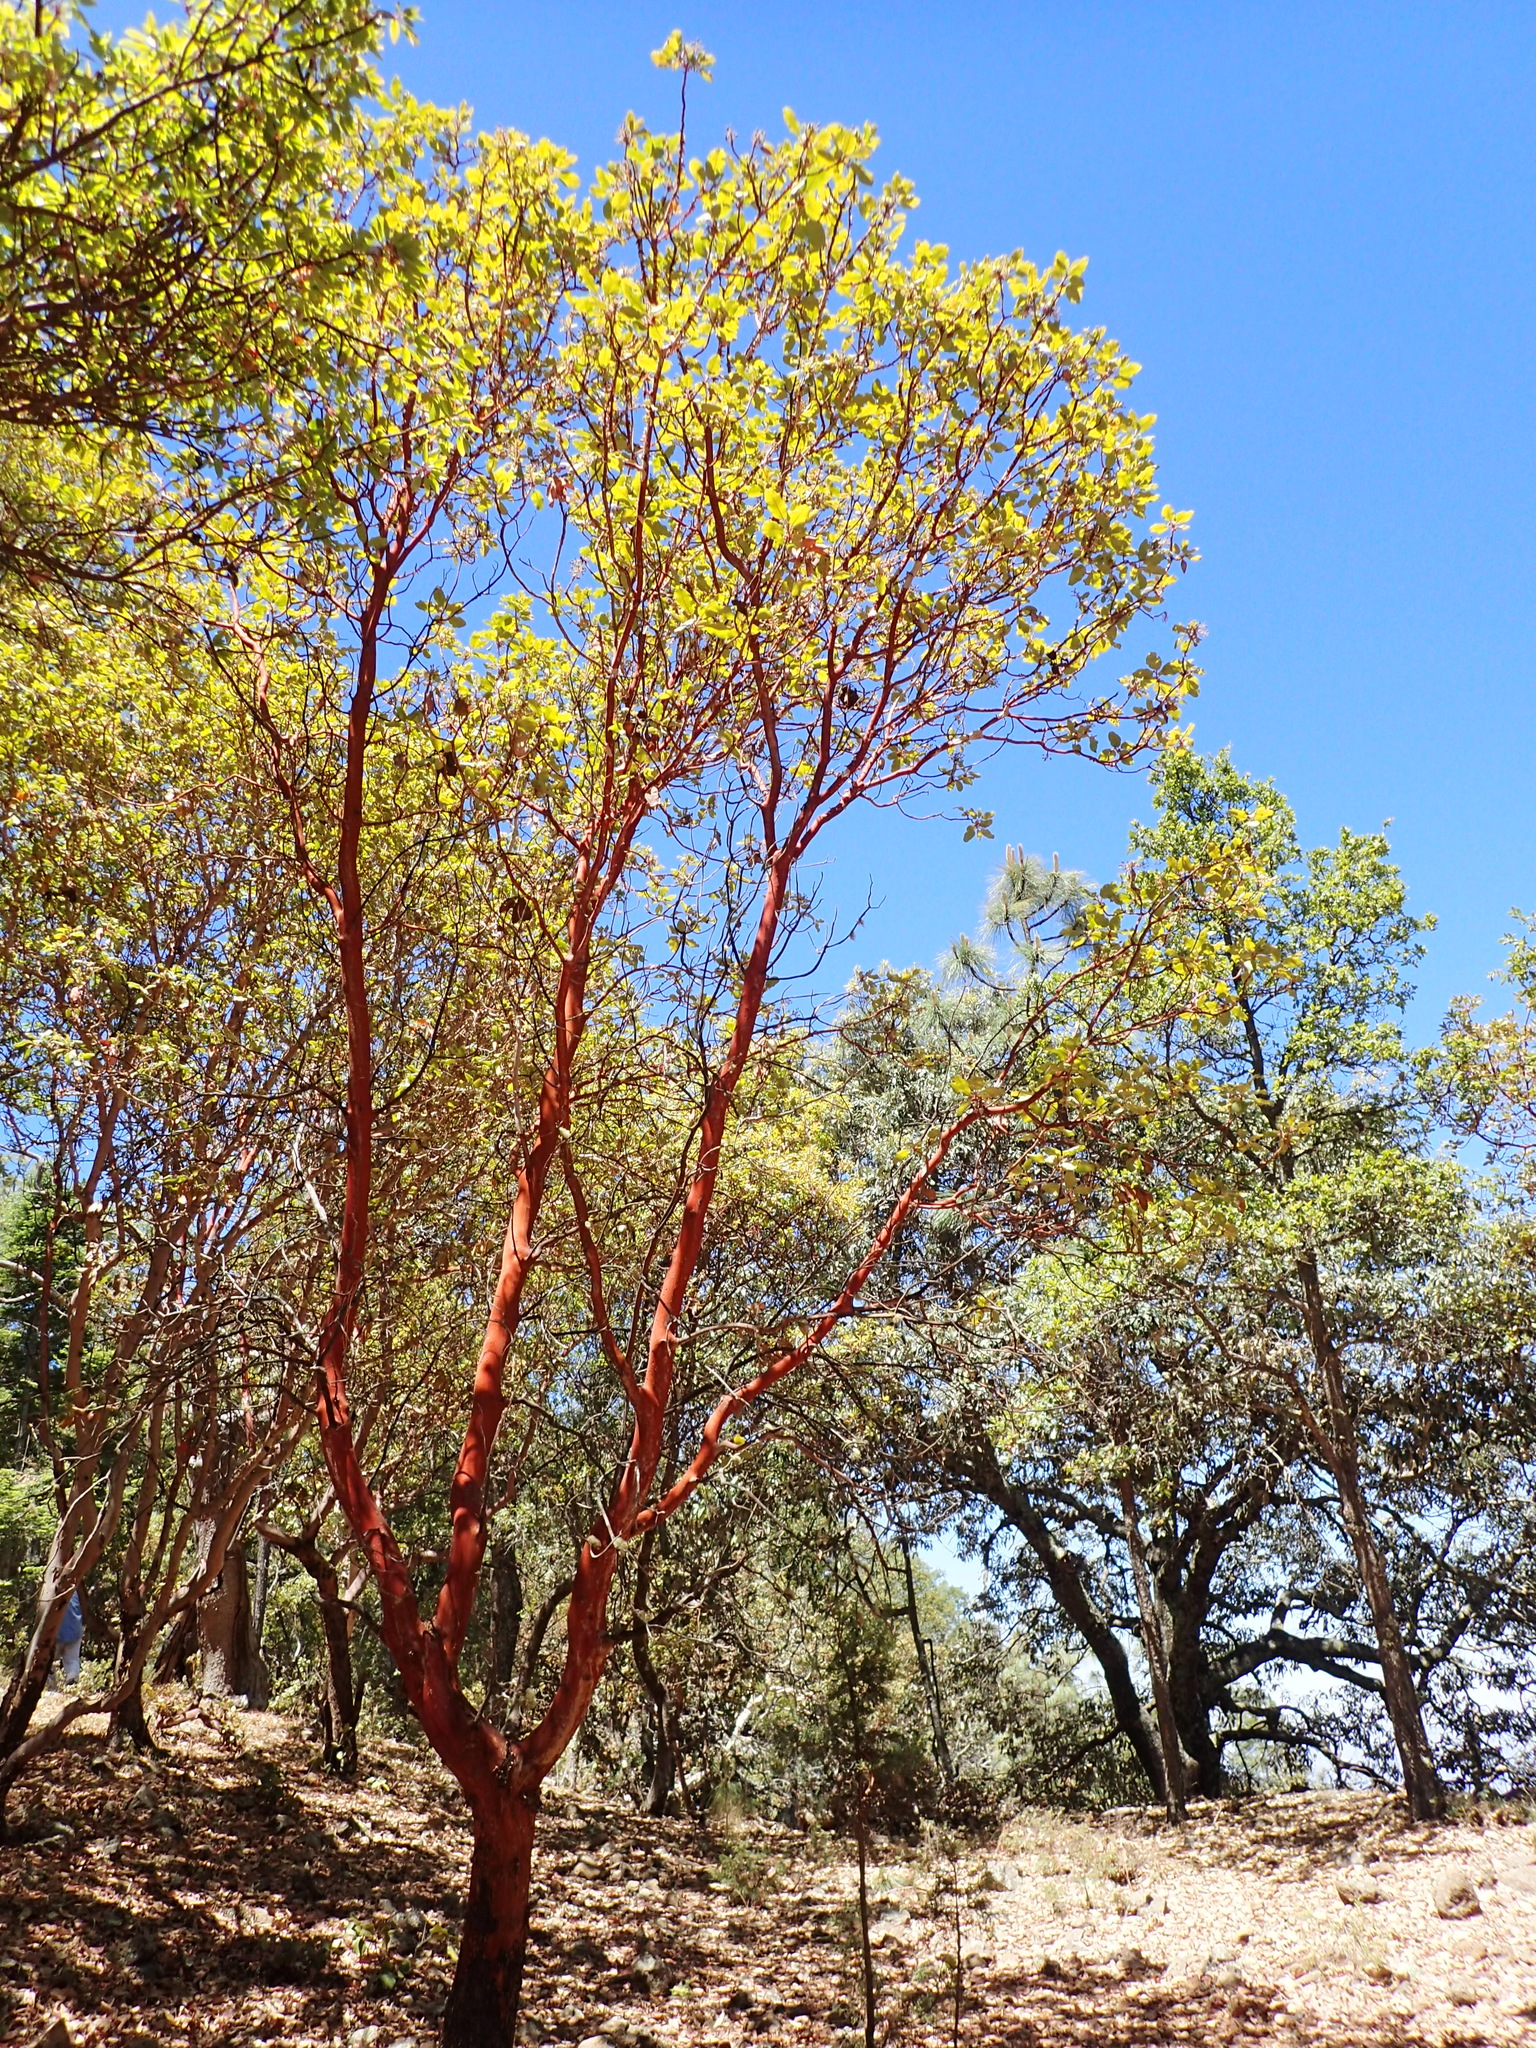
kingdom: Plantae
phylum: Tracheophyta
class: Magnoliopsida
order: Ericales
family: Ericaceae
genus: Arbutus
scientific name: Arbutus xalapensis
